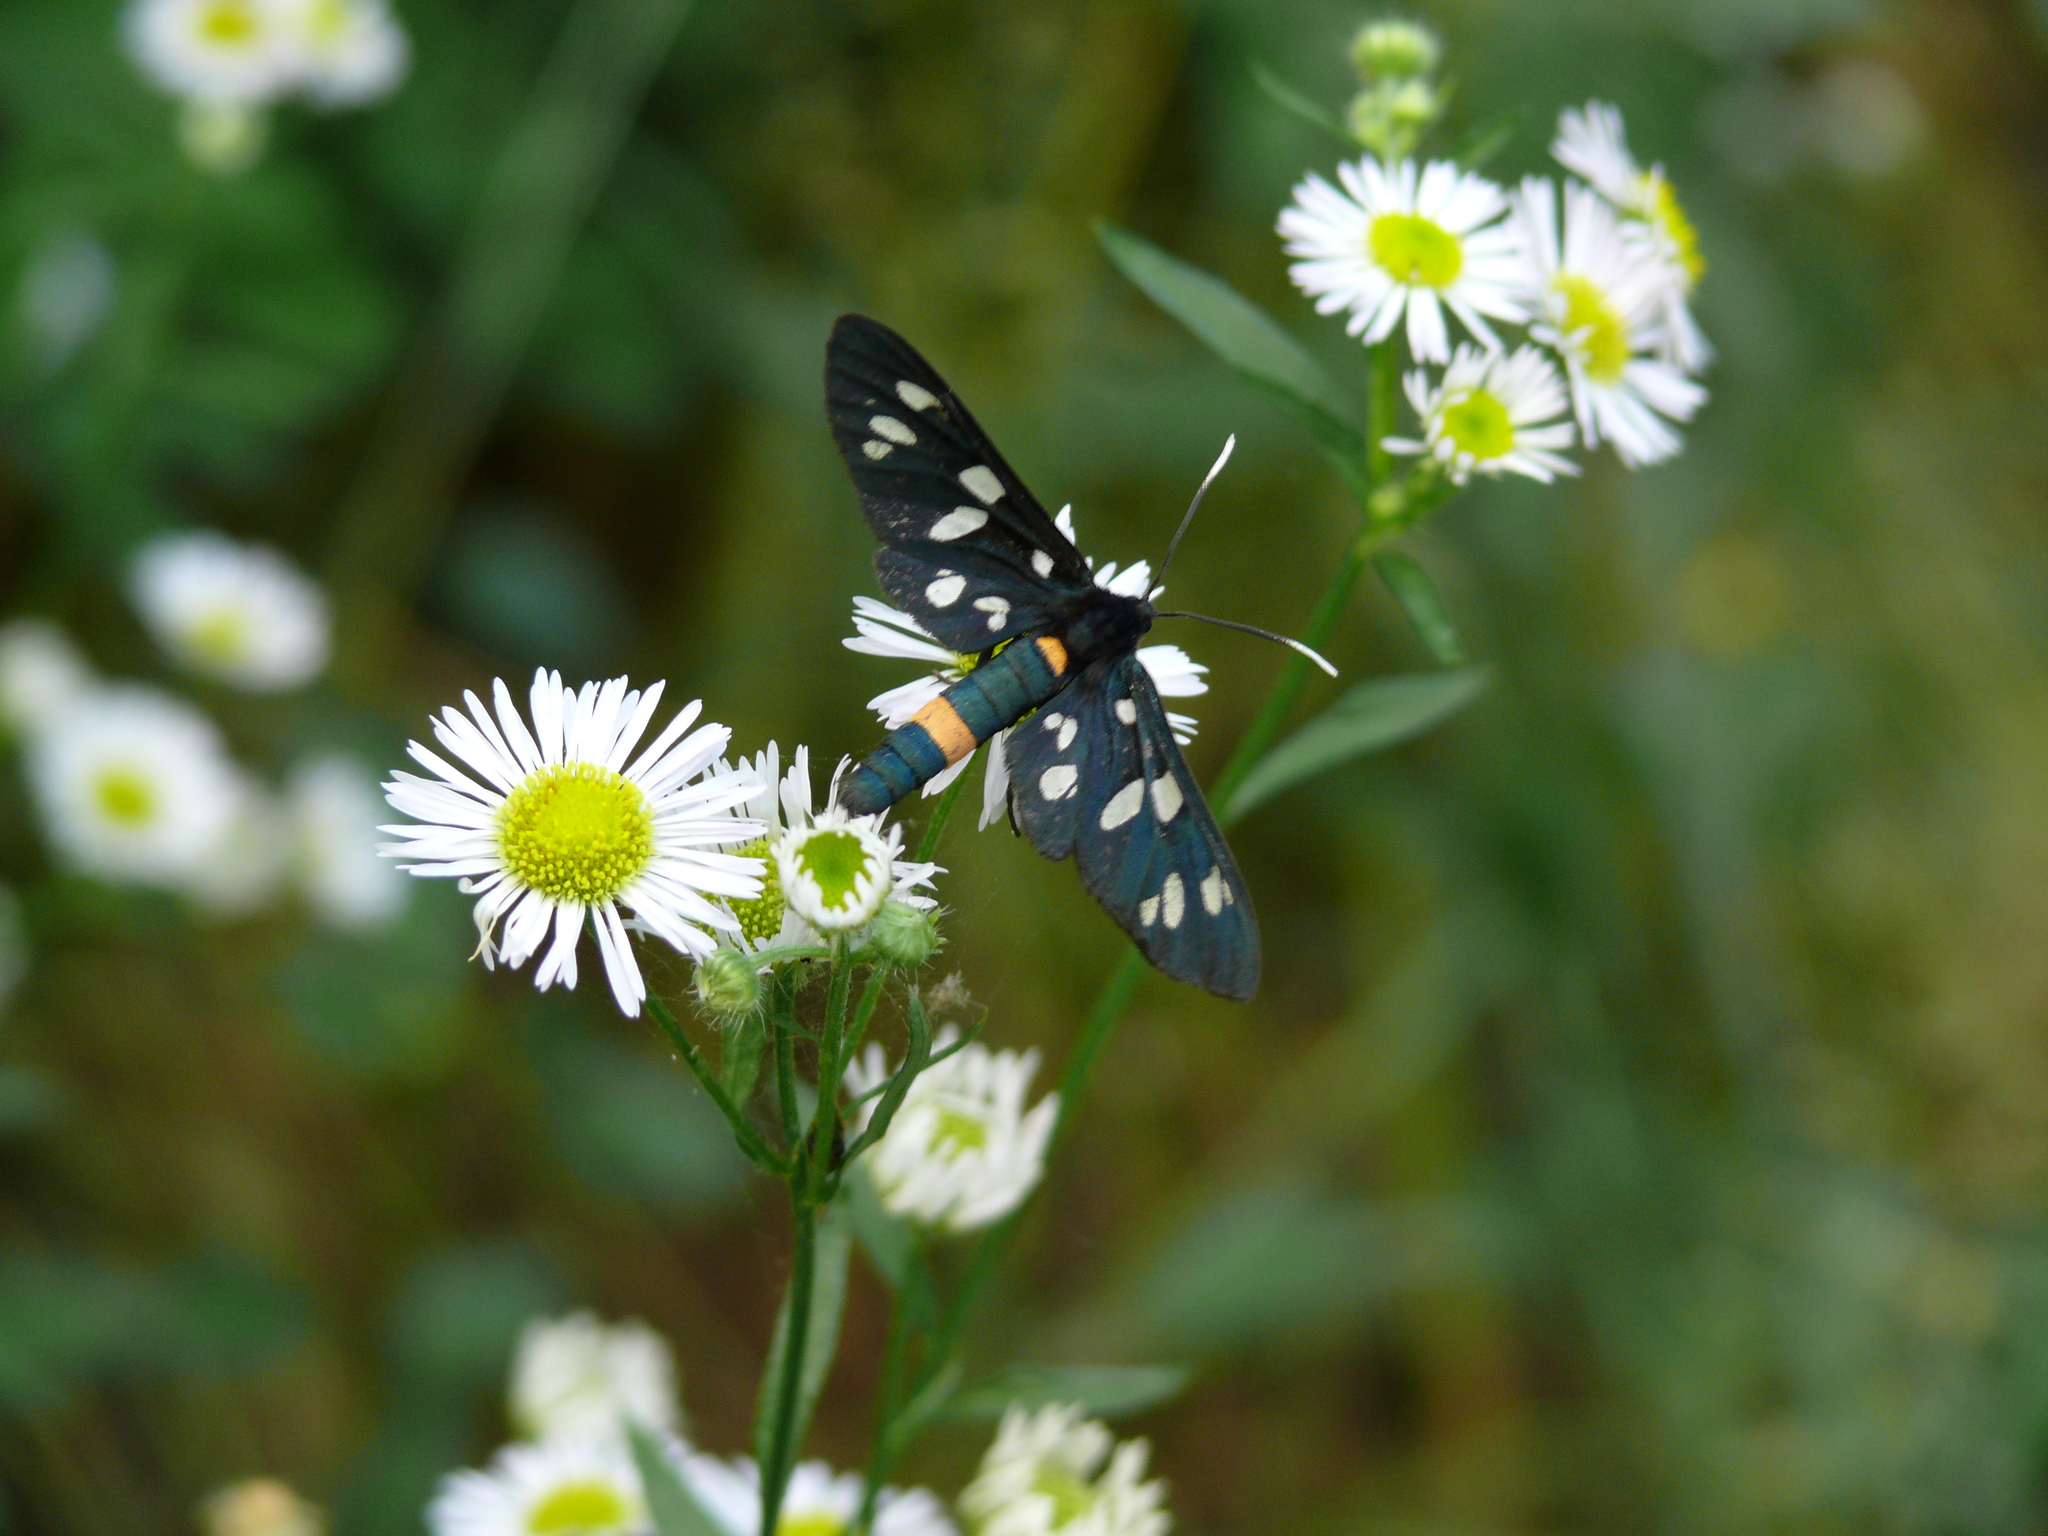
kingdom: Animalia
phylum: Arthropoda
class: Insecta
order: Lepidoptera
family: Erebidae
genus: Amata
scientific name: Amata phegea
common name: Nine-spotted
